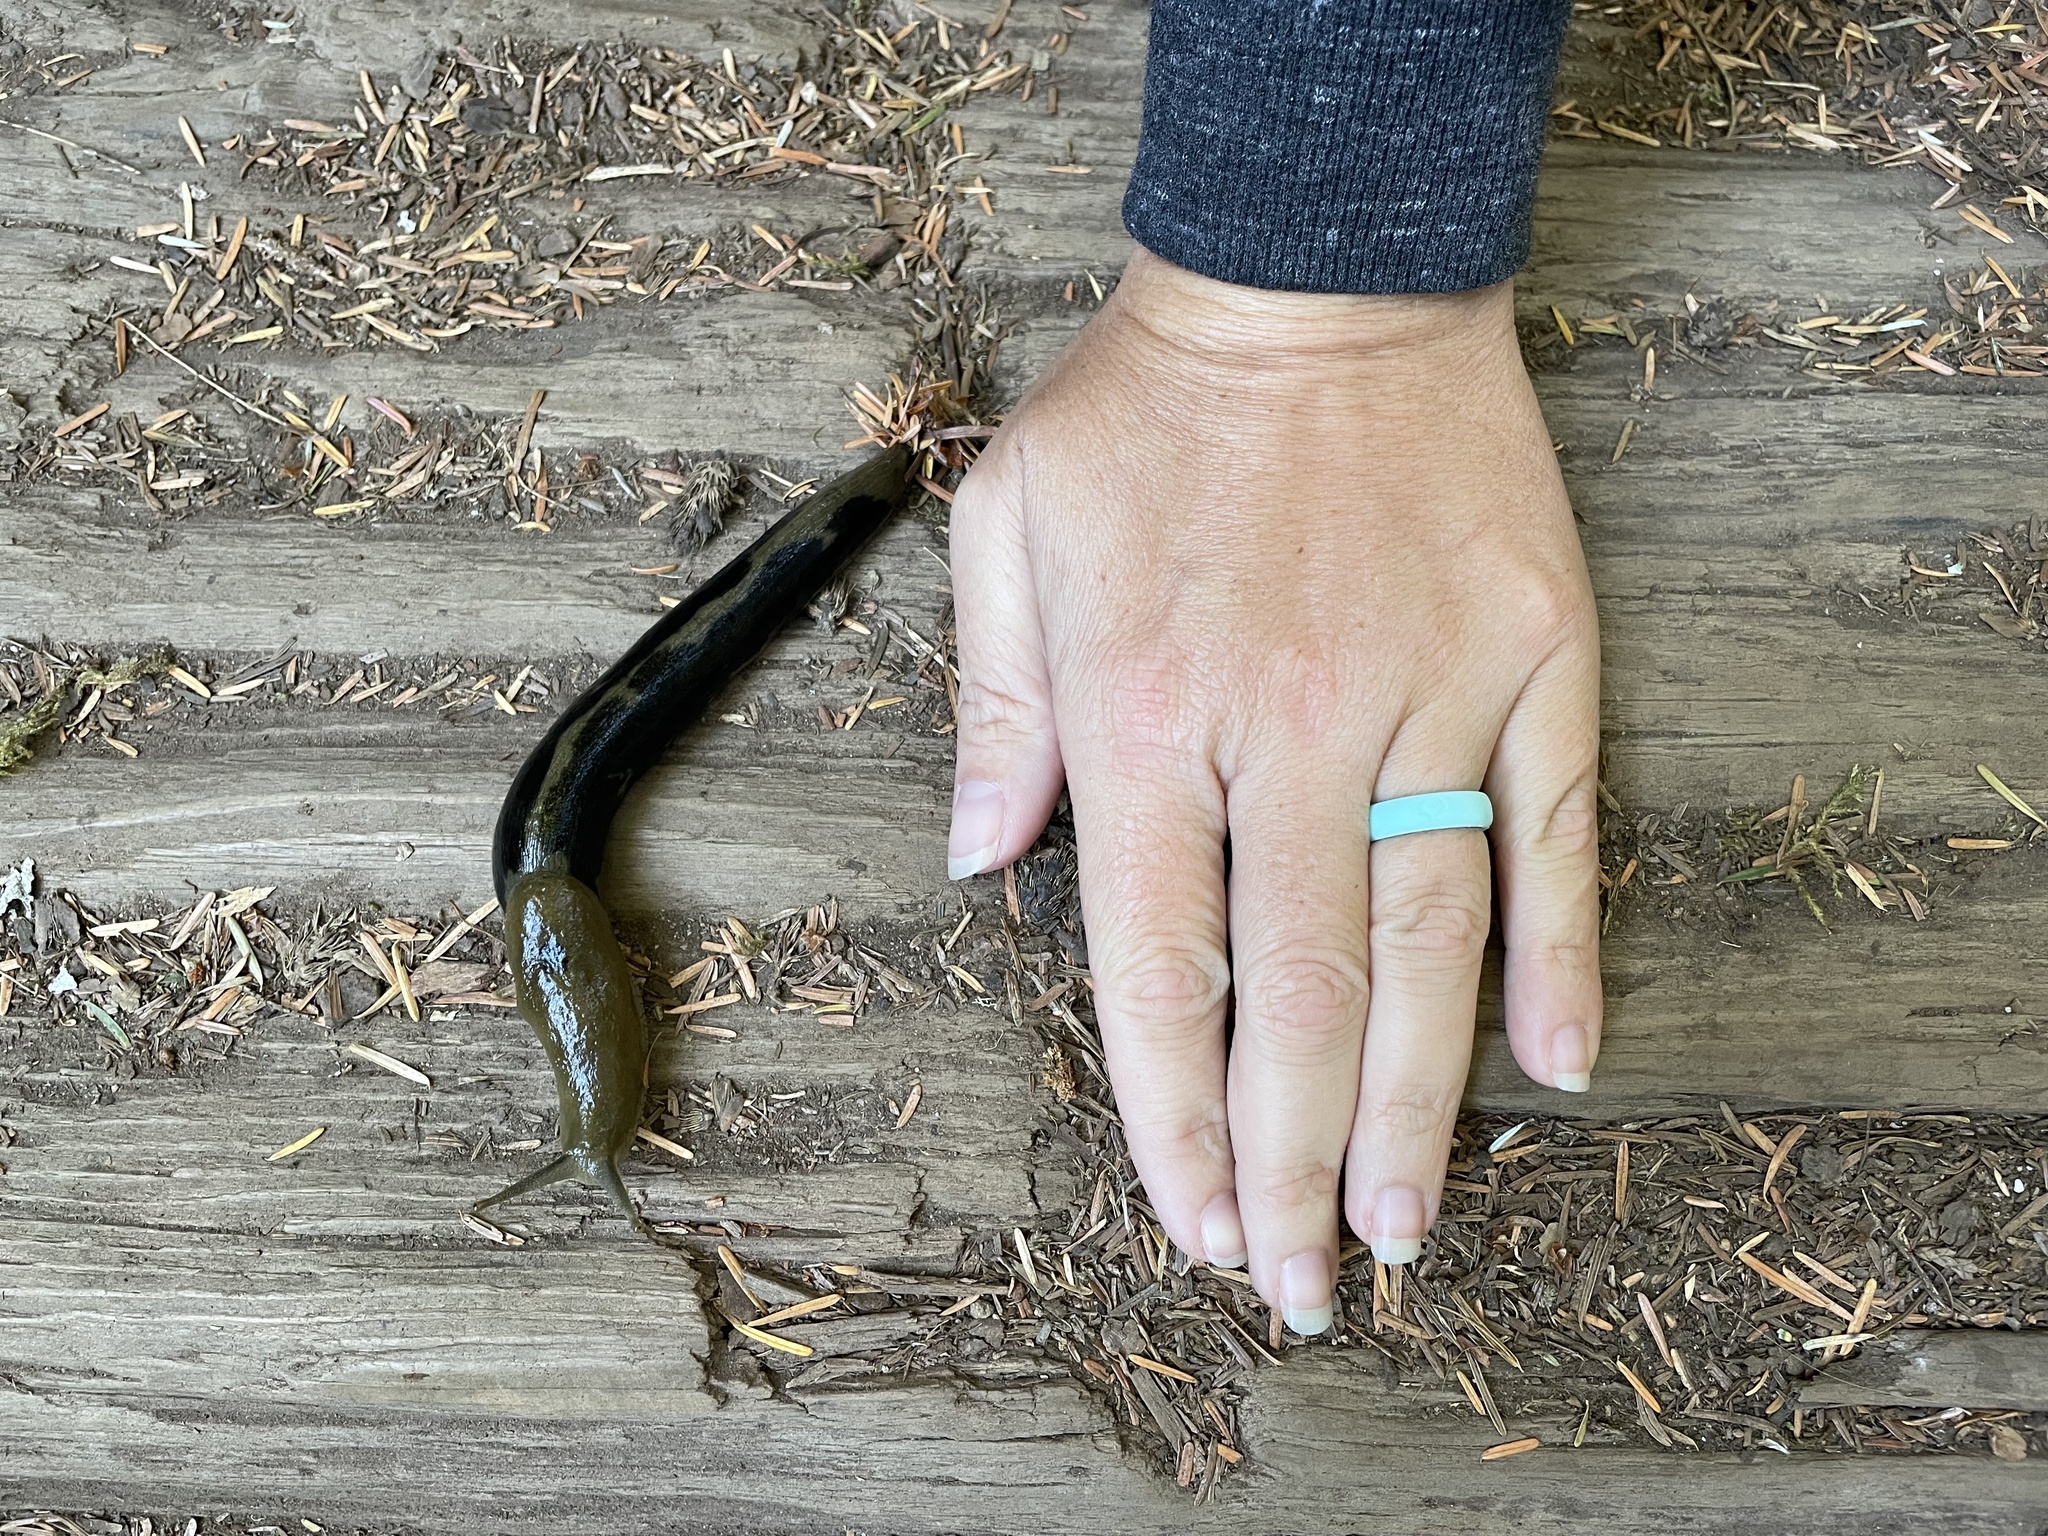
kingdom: Animalia
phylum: Mollusca
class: Gastropoda
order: Stylommatophora
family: Ariolimacidae
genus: Ariolimax
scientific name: Ariolimax columbianus
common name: Pacific banana slug
